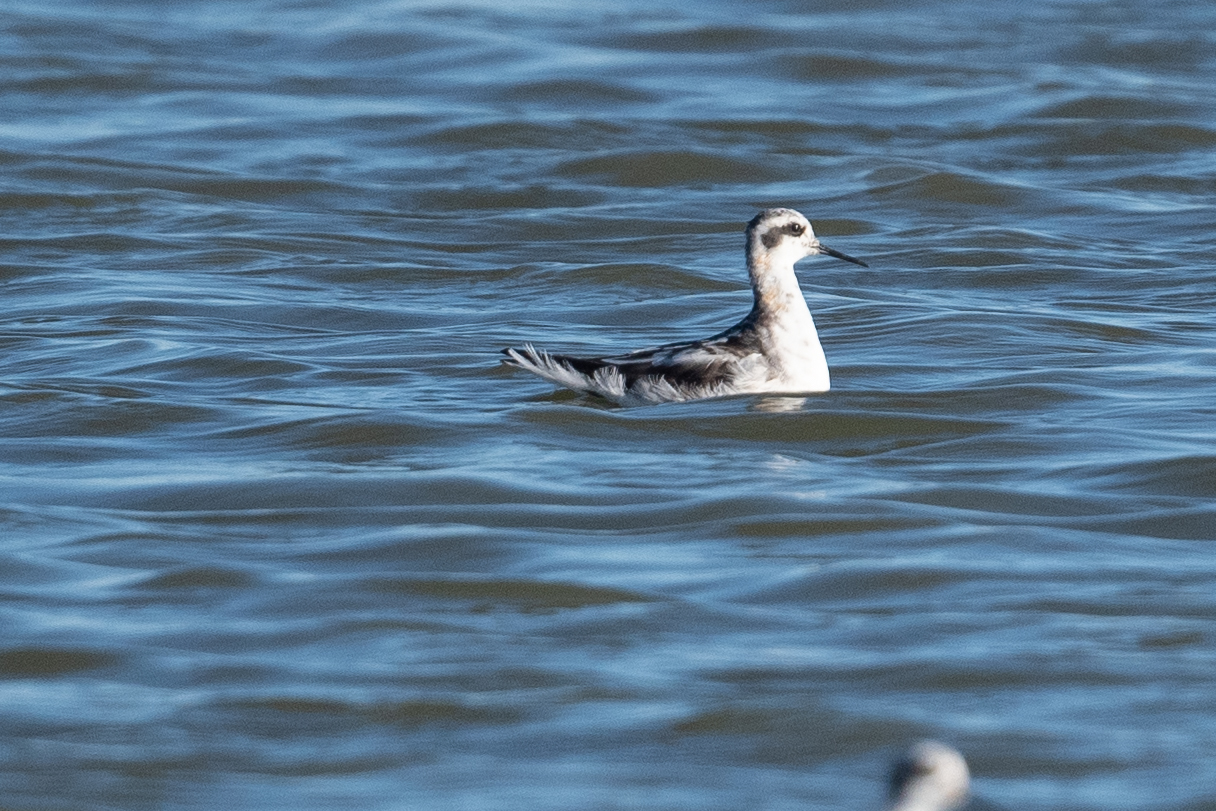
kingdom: Animalia
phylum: Chordata
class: Aves
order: Charadriiformes
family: Scolopacidae
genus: Phalaropus
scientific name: Phalaropus lobatus
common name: Red-necked phalarope
